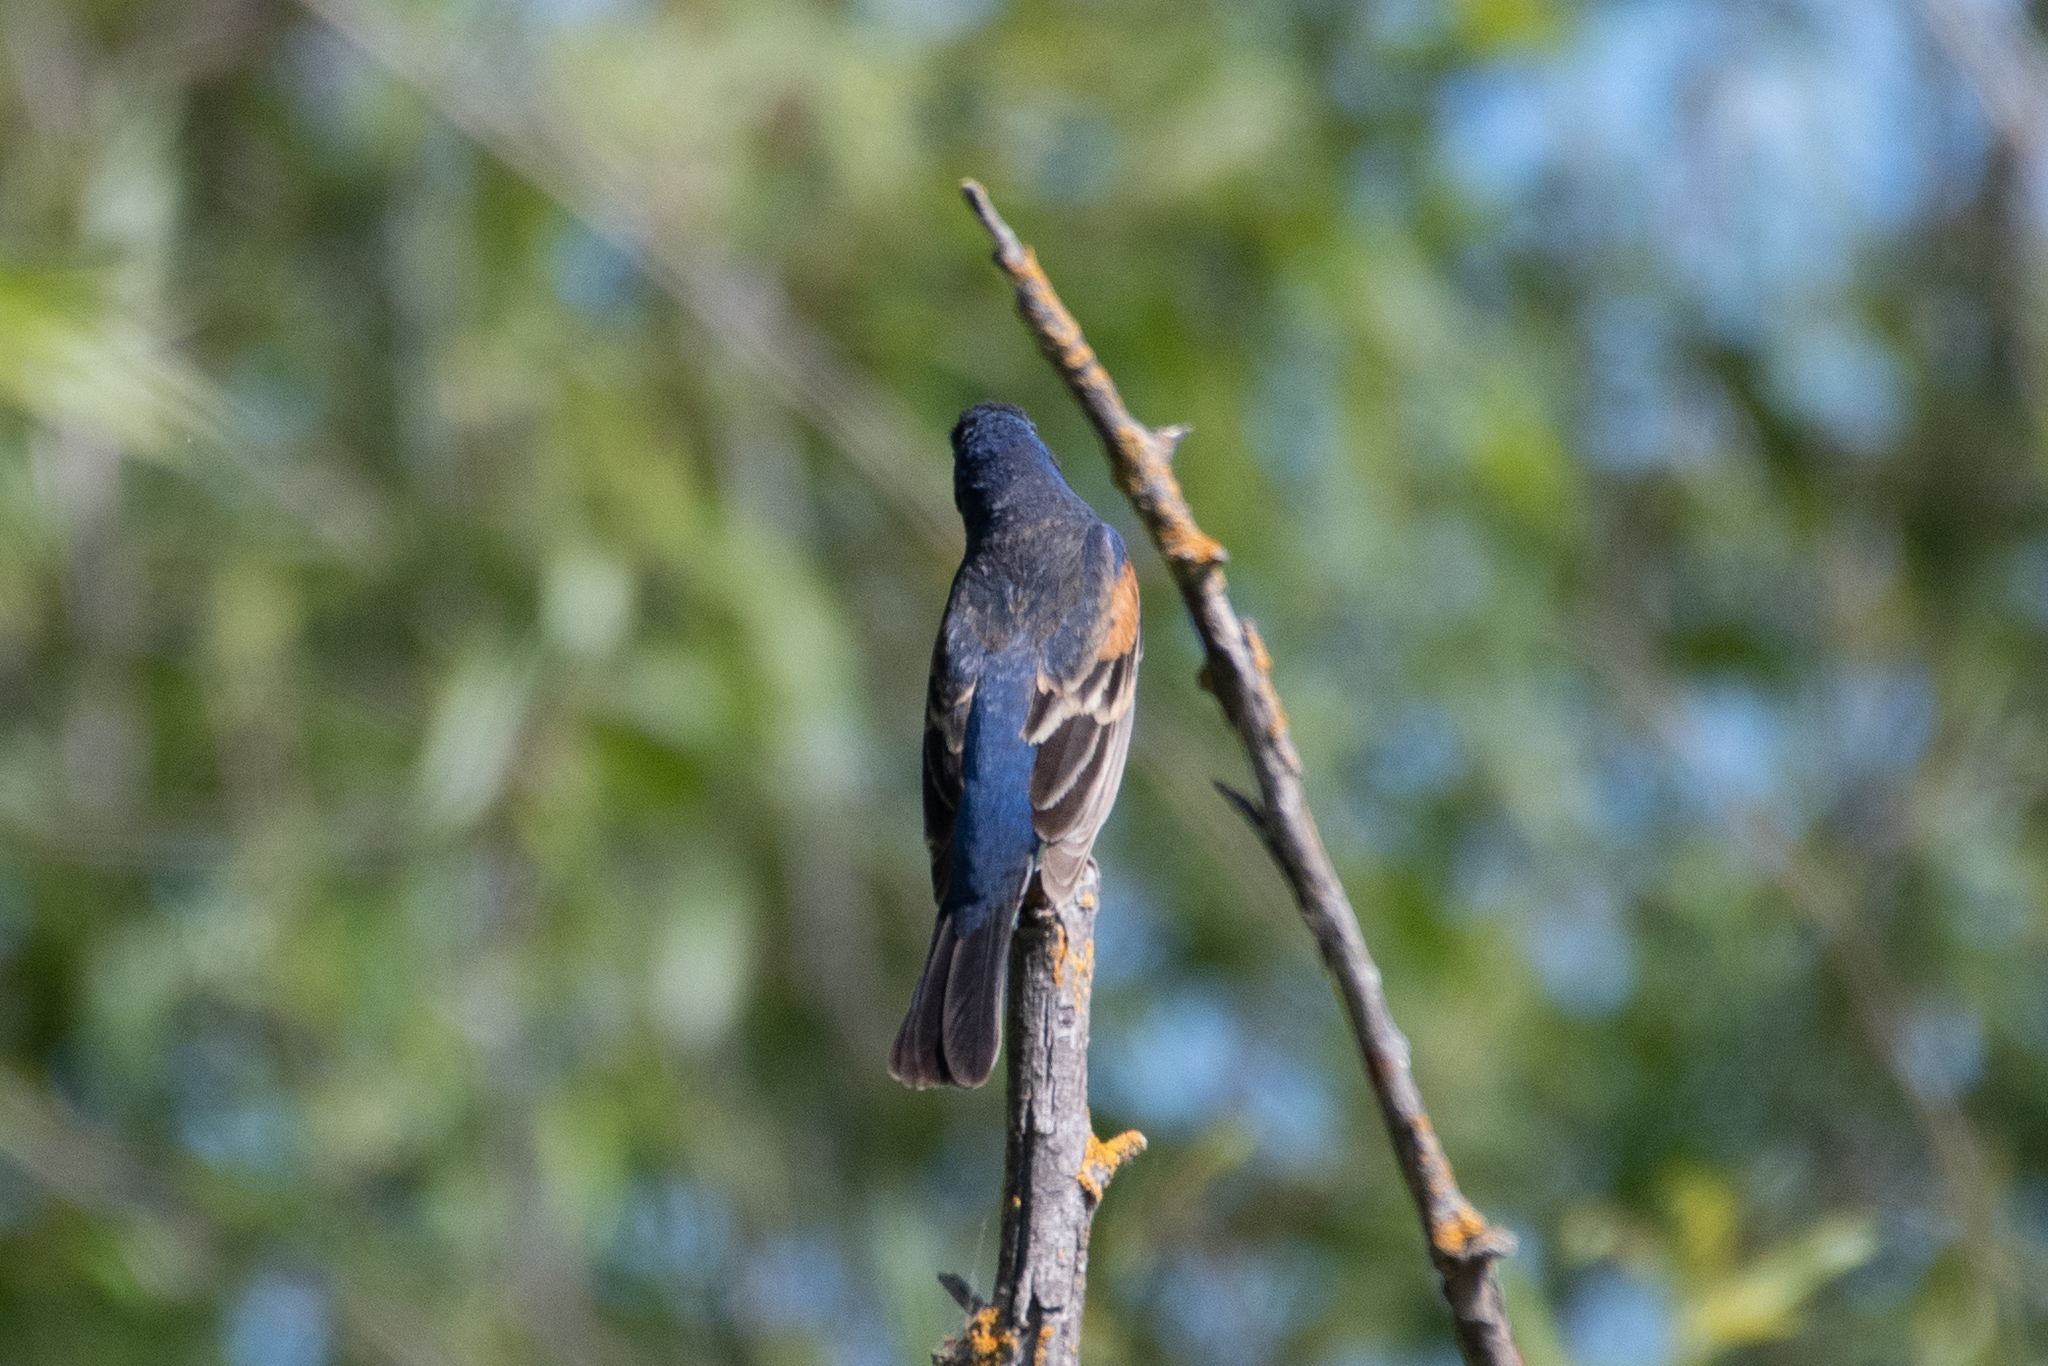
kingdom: Animalia
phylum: Chordata
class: Aves
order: Passeriformes
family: Cardinalidae
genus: Passerina
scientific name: Passerina caerulea
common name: Blue grosbeak
